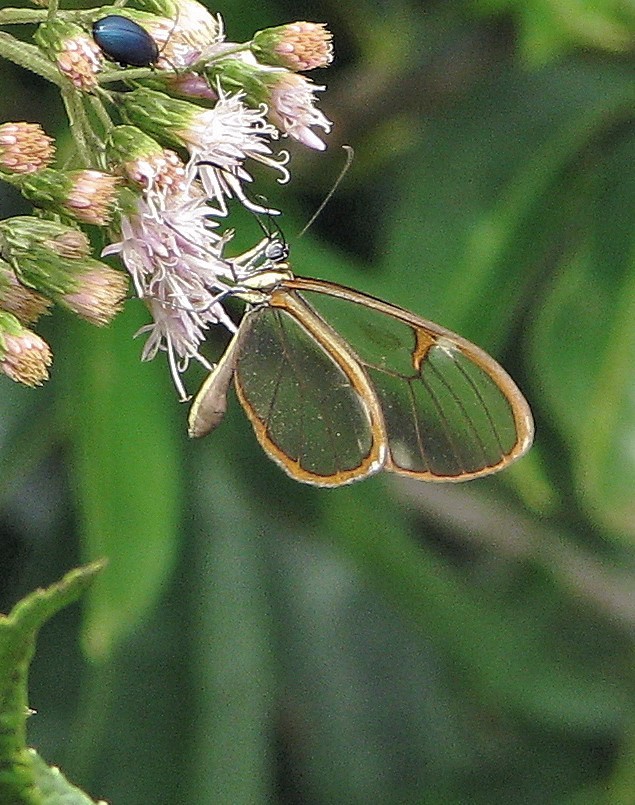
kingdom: Animalia
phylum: Arthropoda
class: Insecta
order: Lepidoptera
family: Nymphalidae
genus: Episcada
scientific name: Episcada sylvo
